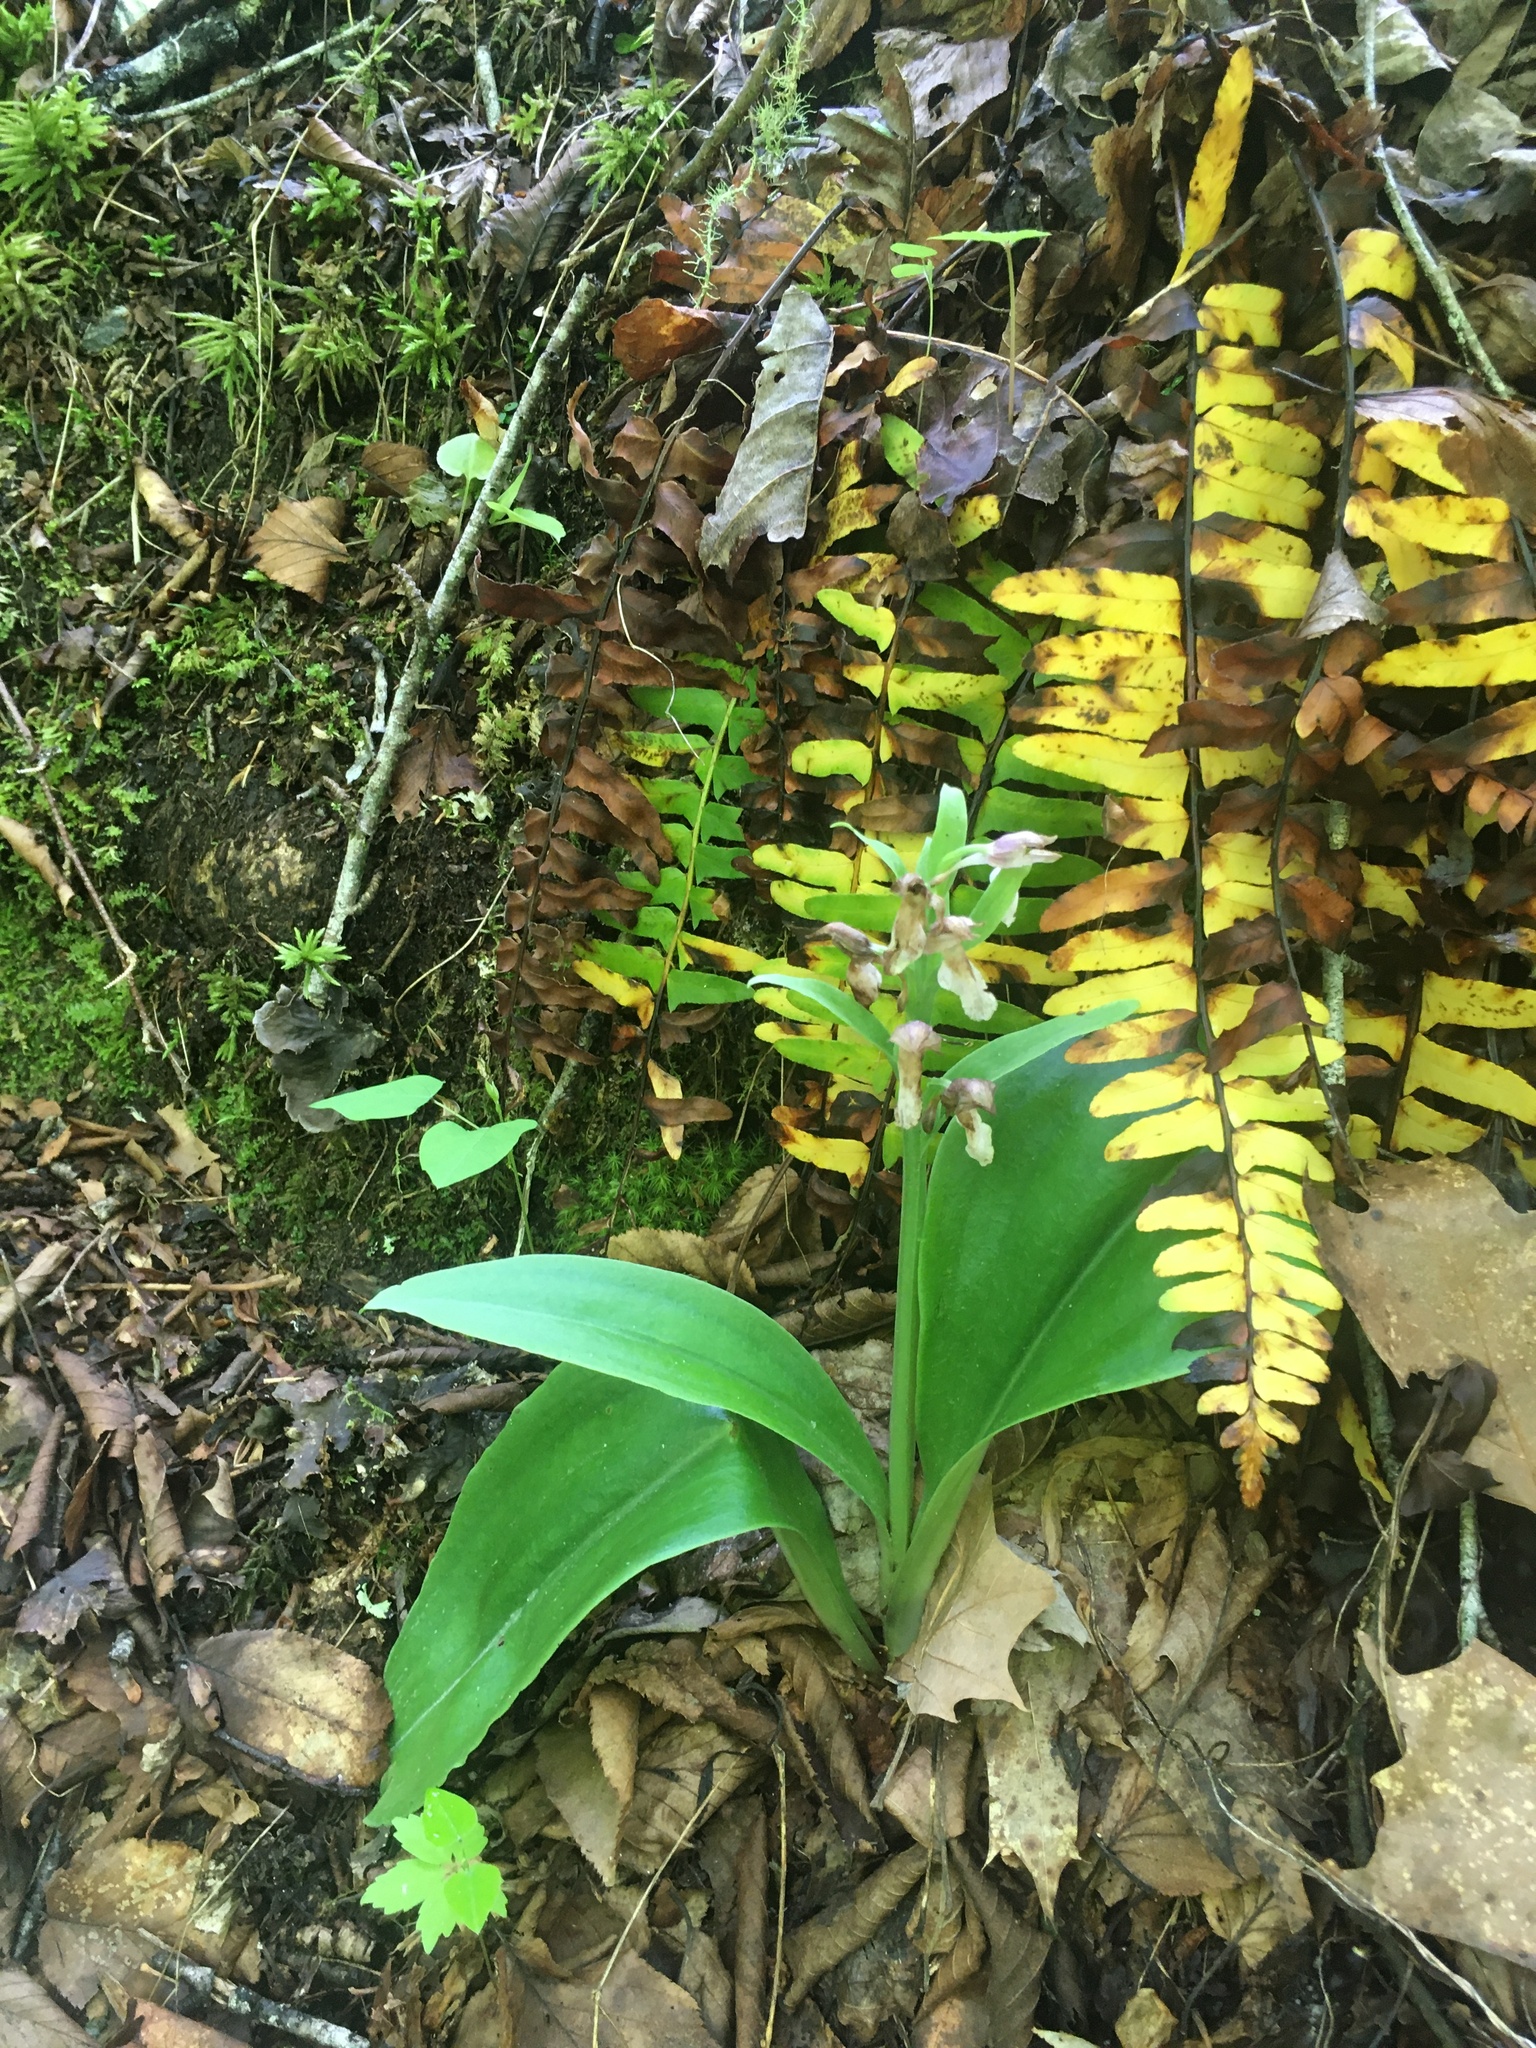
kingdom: Plantae
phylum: Tracheophyta
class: Liliopsida
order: Asparagales
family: Orchidaceae
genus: Galearis
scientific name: Galearis spectabilis
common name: Purple-hooded orchis
